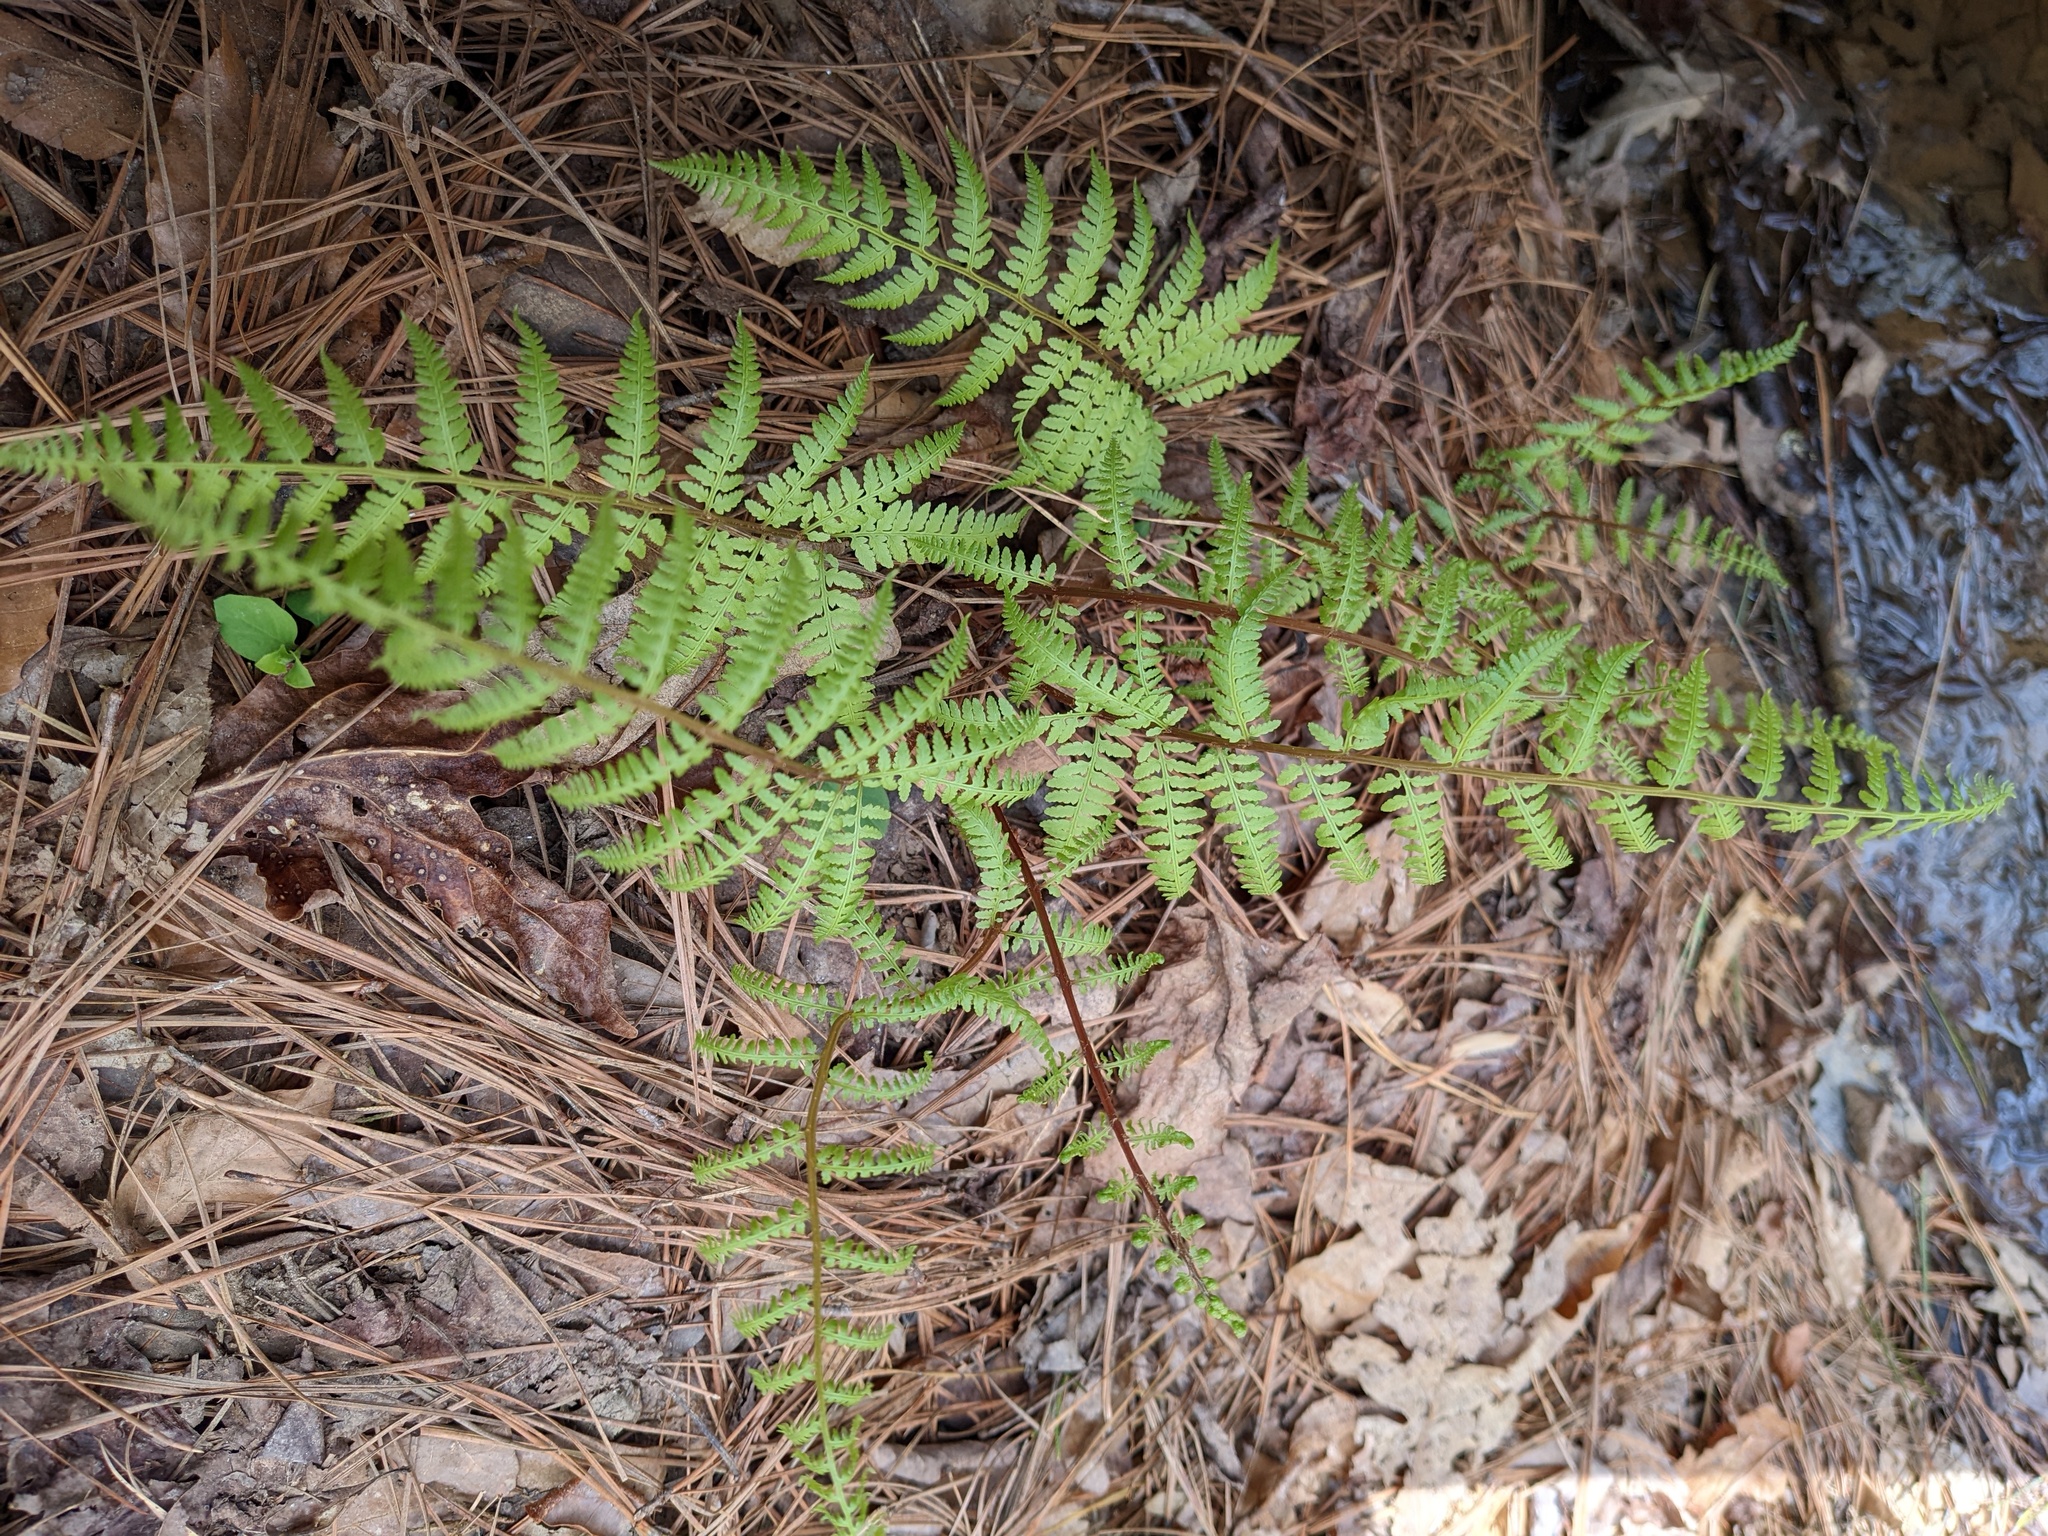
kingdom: Plantae
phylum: Tracheophyta
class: Polypodiopsida
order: Polypodiales
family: Athyriaceae
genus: Athyrium
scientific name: Athyrium asplenioides
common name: Southern lady fern
